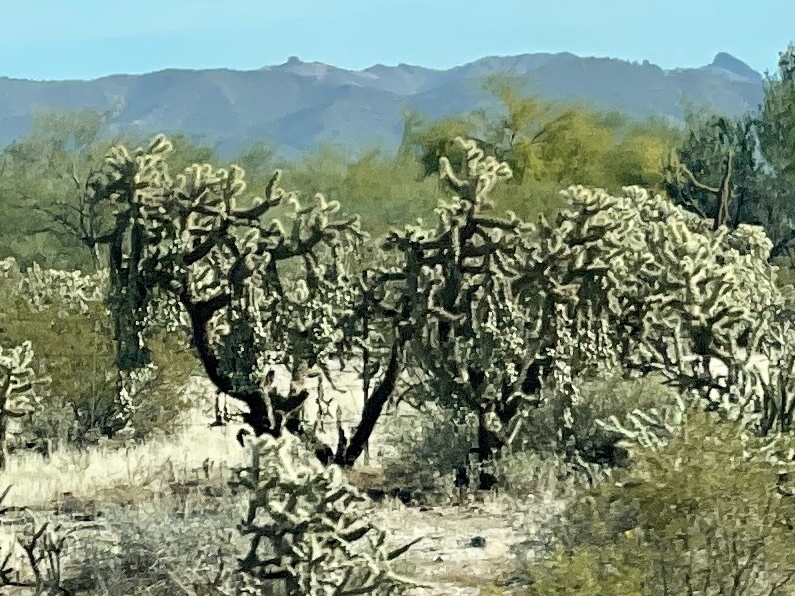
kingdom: Plantae
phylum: Tracheophyta
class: Magnoliopsida
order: Caryophyllales
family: Cactaceae
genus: Cylindropuntia
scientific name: Cylindropuntia fulgida
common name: Jumping cholla
